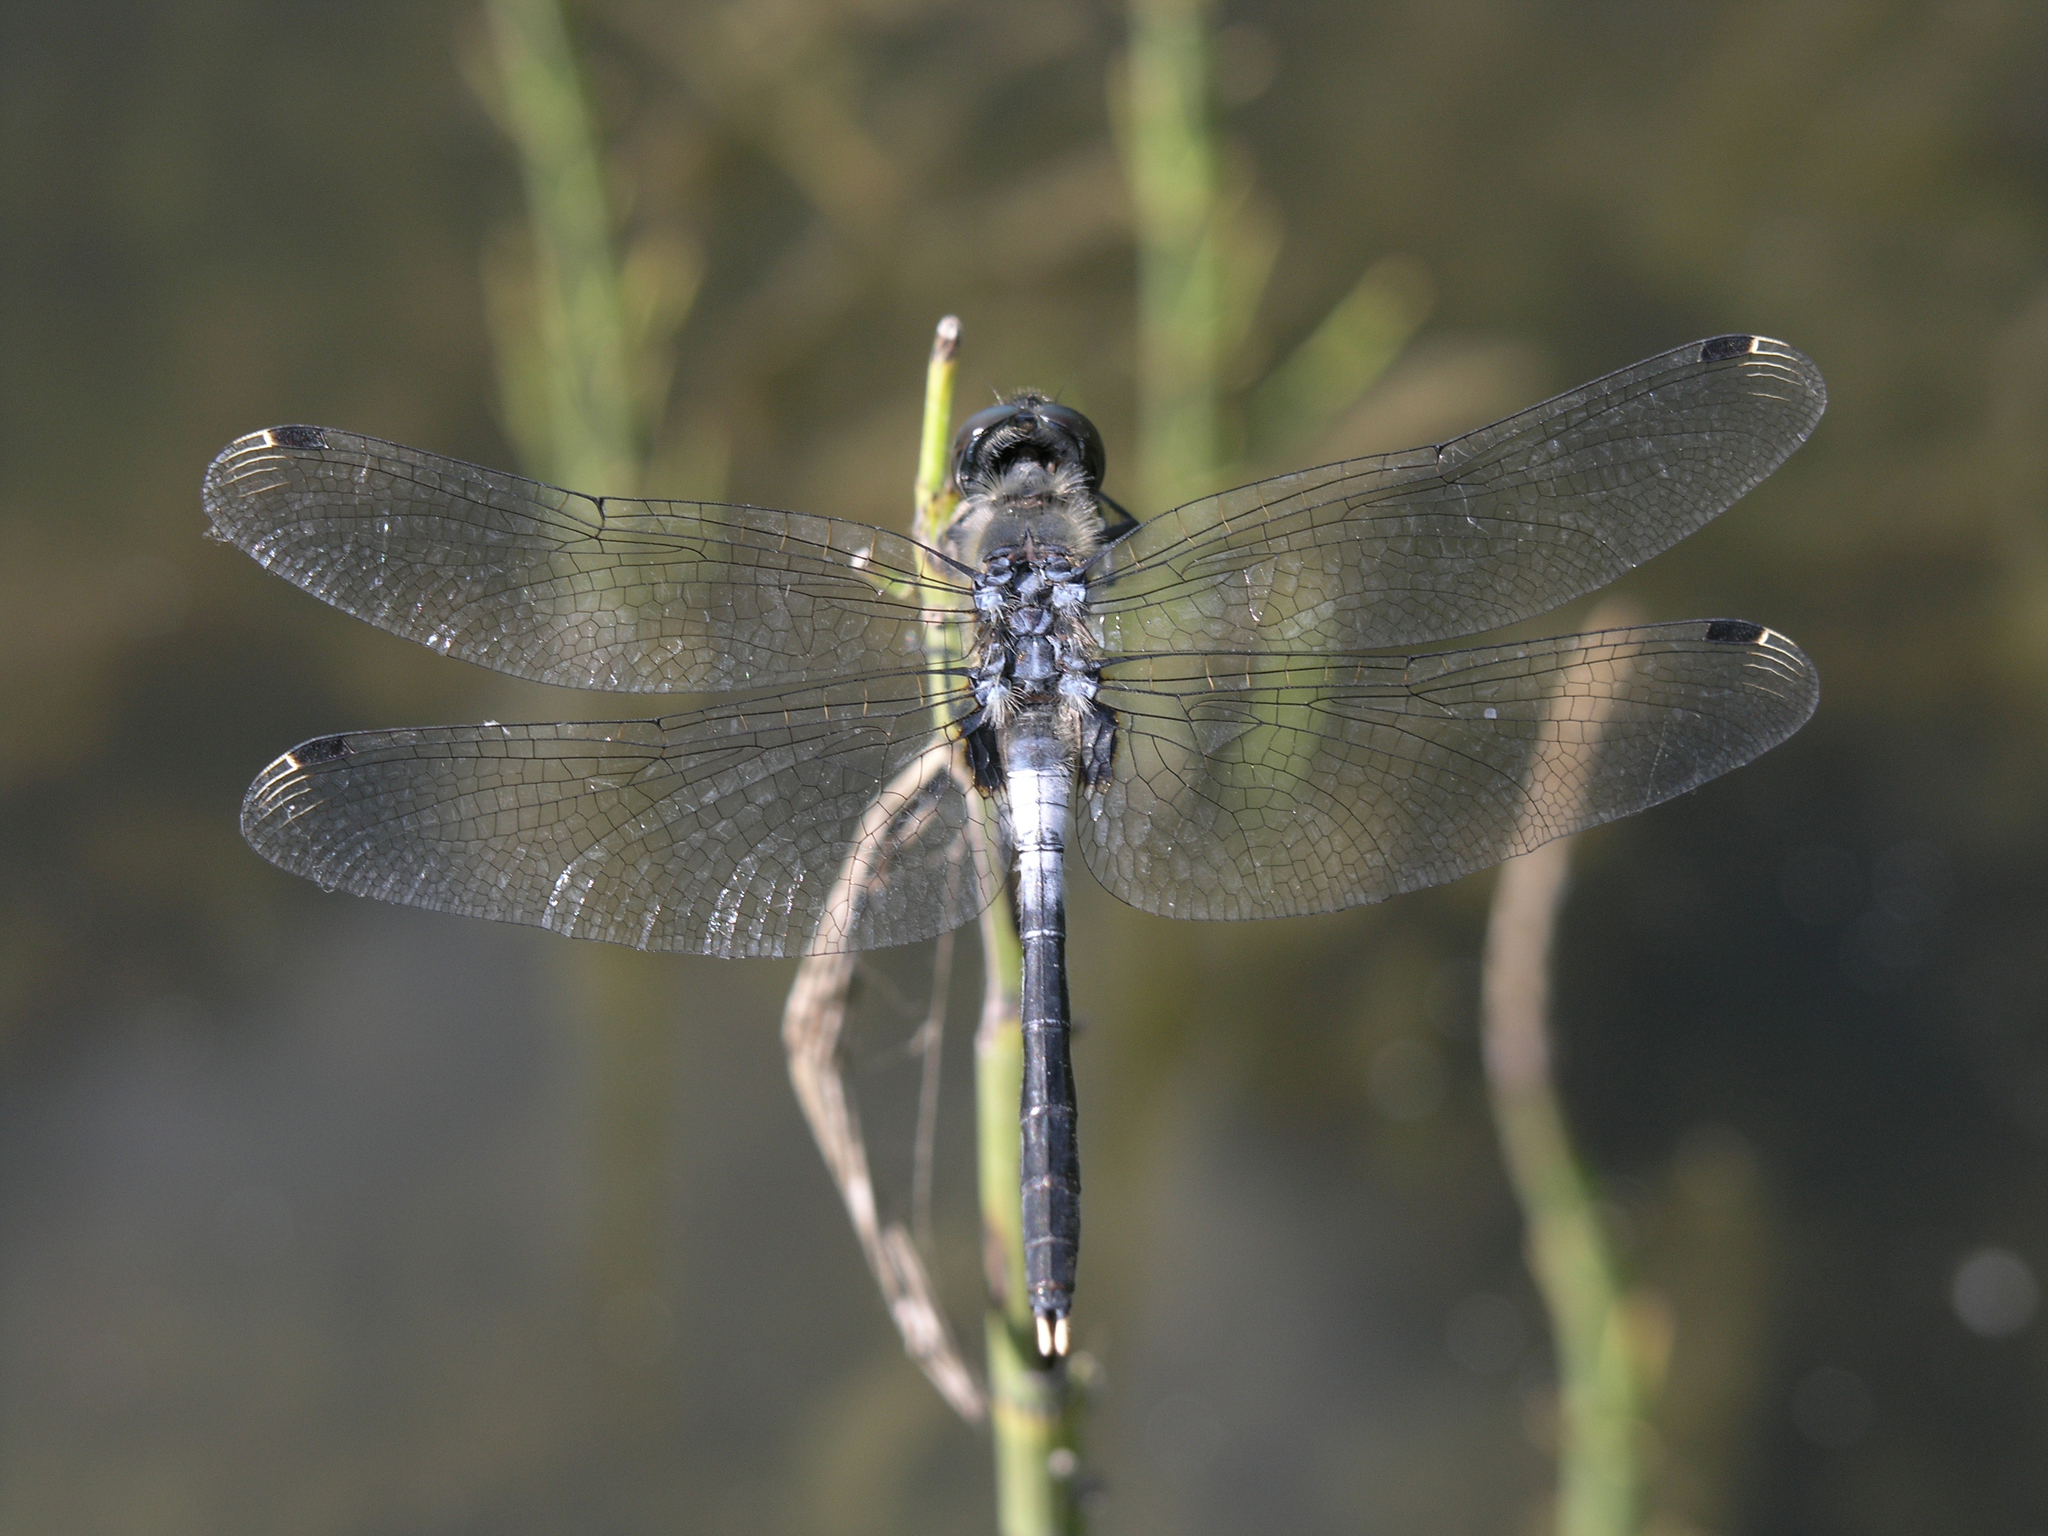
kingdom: Animalia
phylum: Arthropoda
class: Insecta
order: Odonata
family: Libellulidae
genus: Leucorrhinia
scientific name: Leucorrhinia albifrons
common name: Dark whiteface
